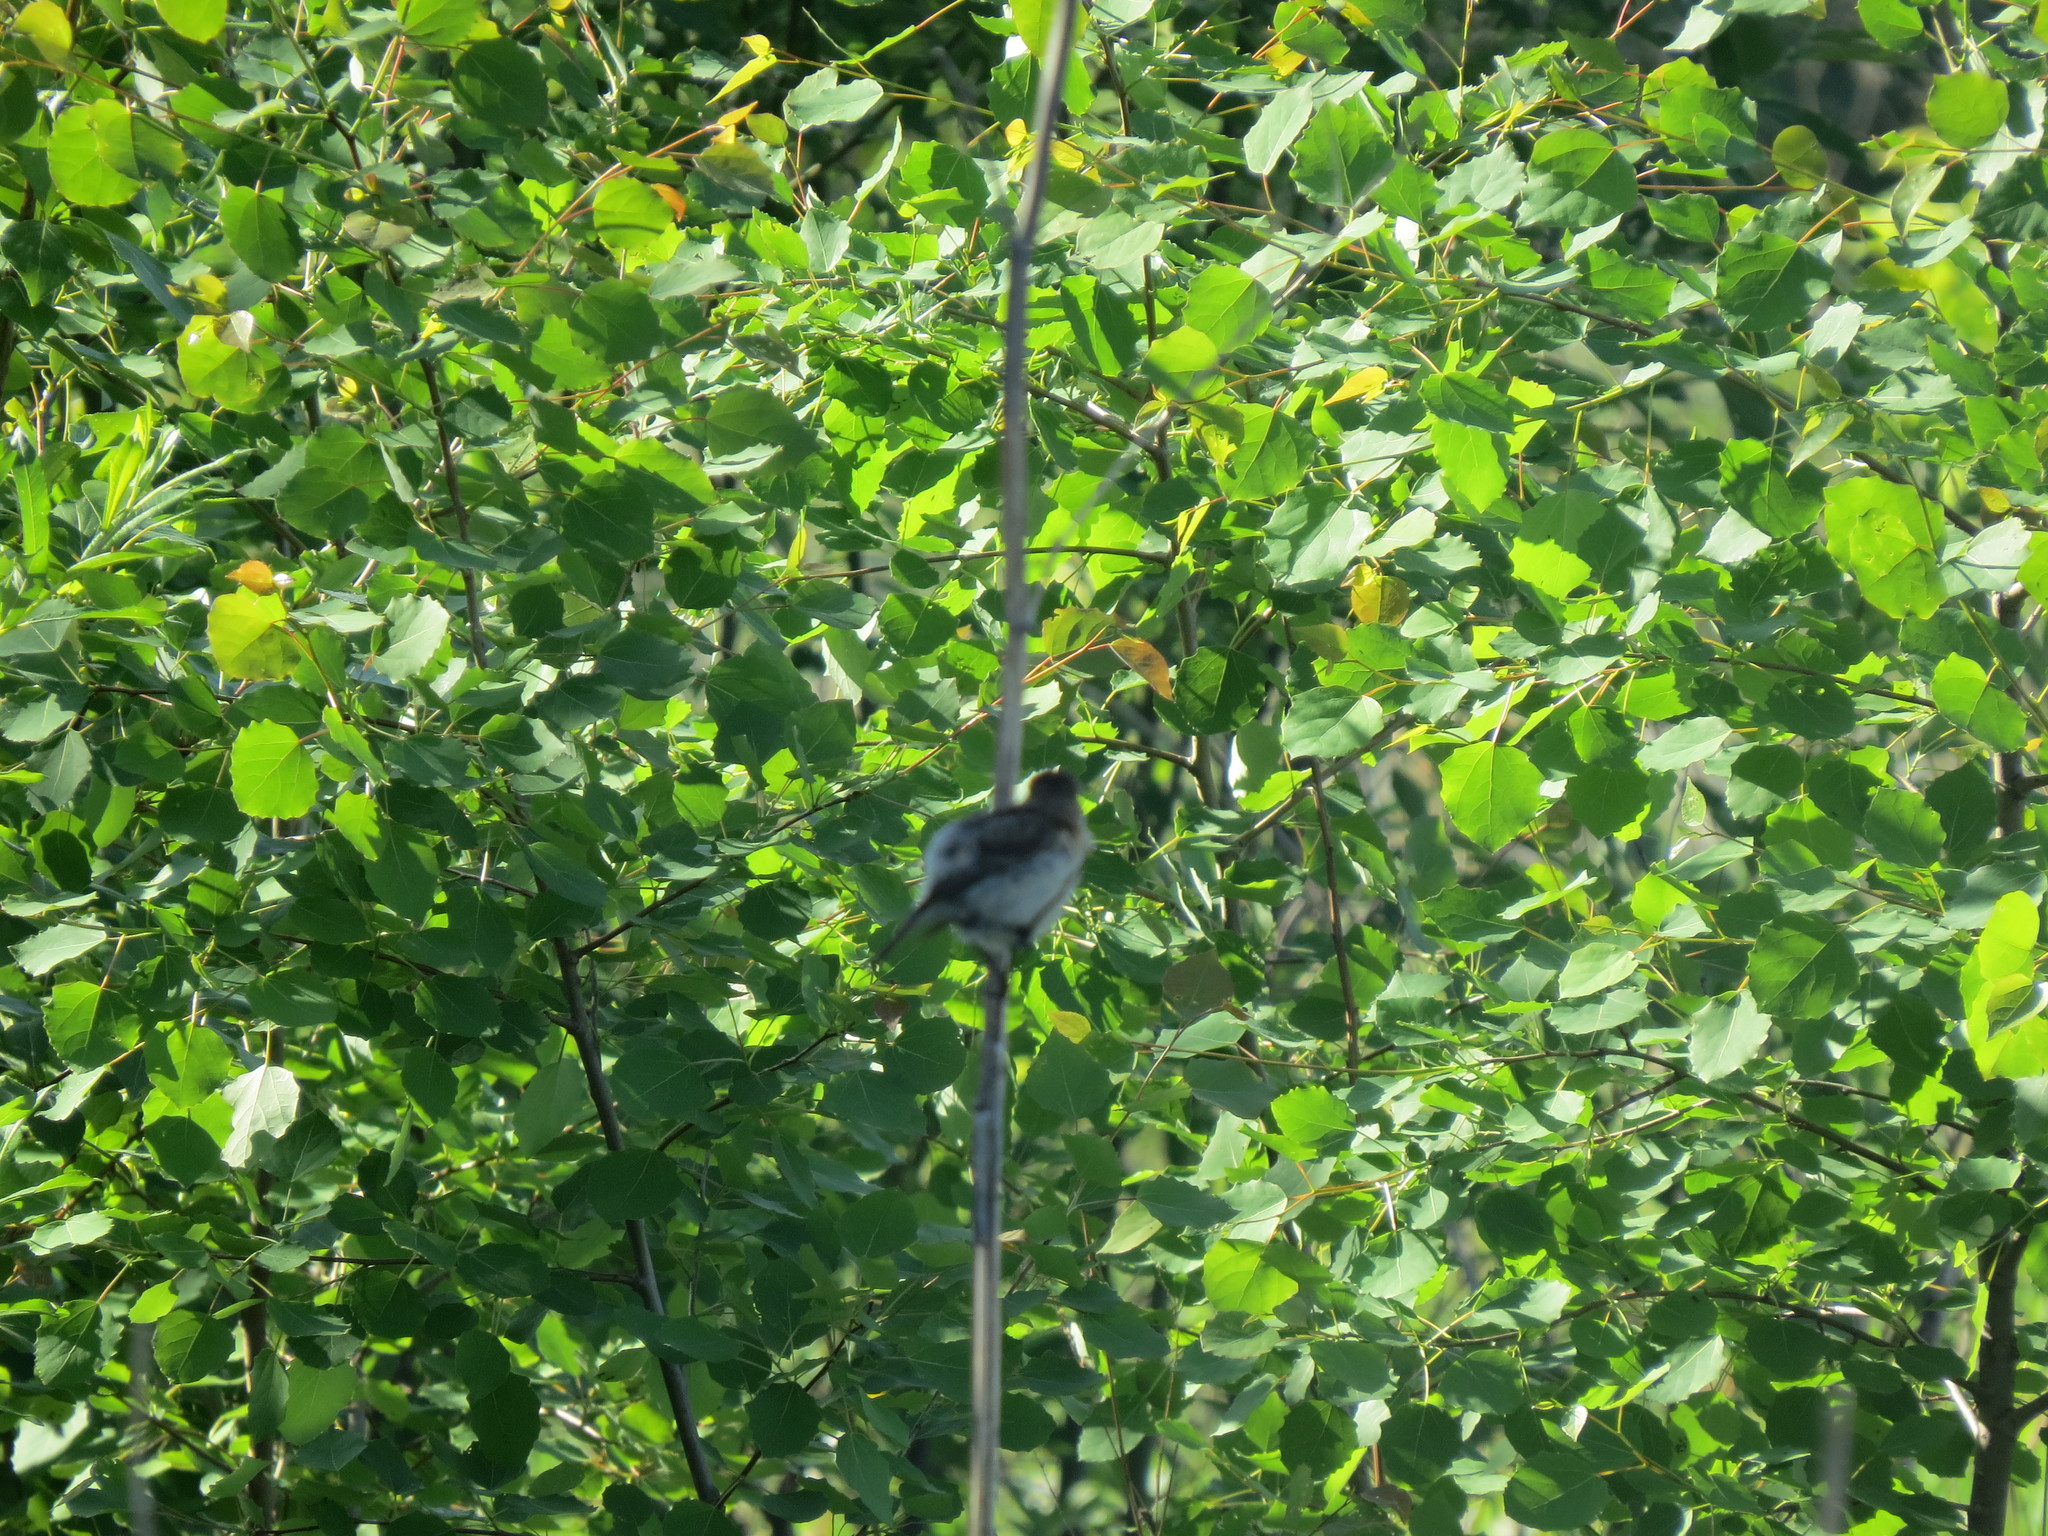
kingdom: Animalia
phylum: Chordata
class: Aves
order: Passeriformes
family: Muscicapidae
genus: Saxicola
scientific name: Saxicola maurus
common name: Siberian stonechat
